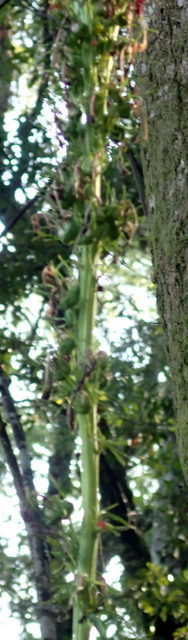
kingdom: Plantae
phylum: Tracheophyta
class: Magnoliopsida
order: Asterales
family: Campanulaceae
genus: Lobelia
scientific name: Lobelia cardinalis
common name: Cardinal flower
